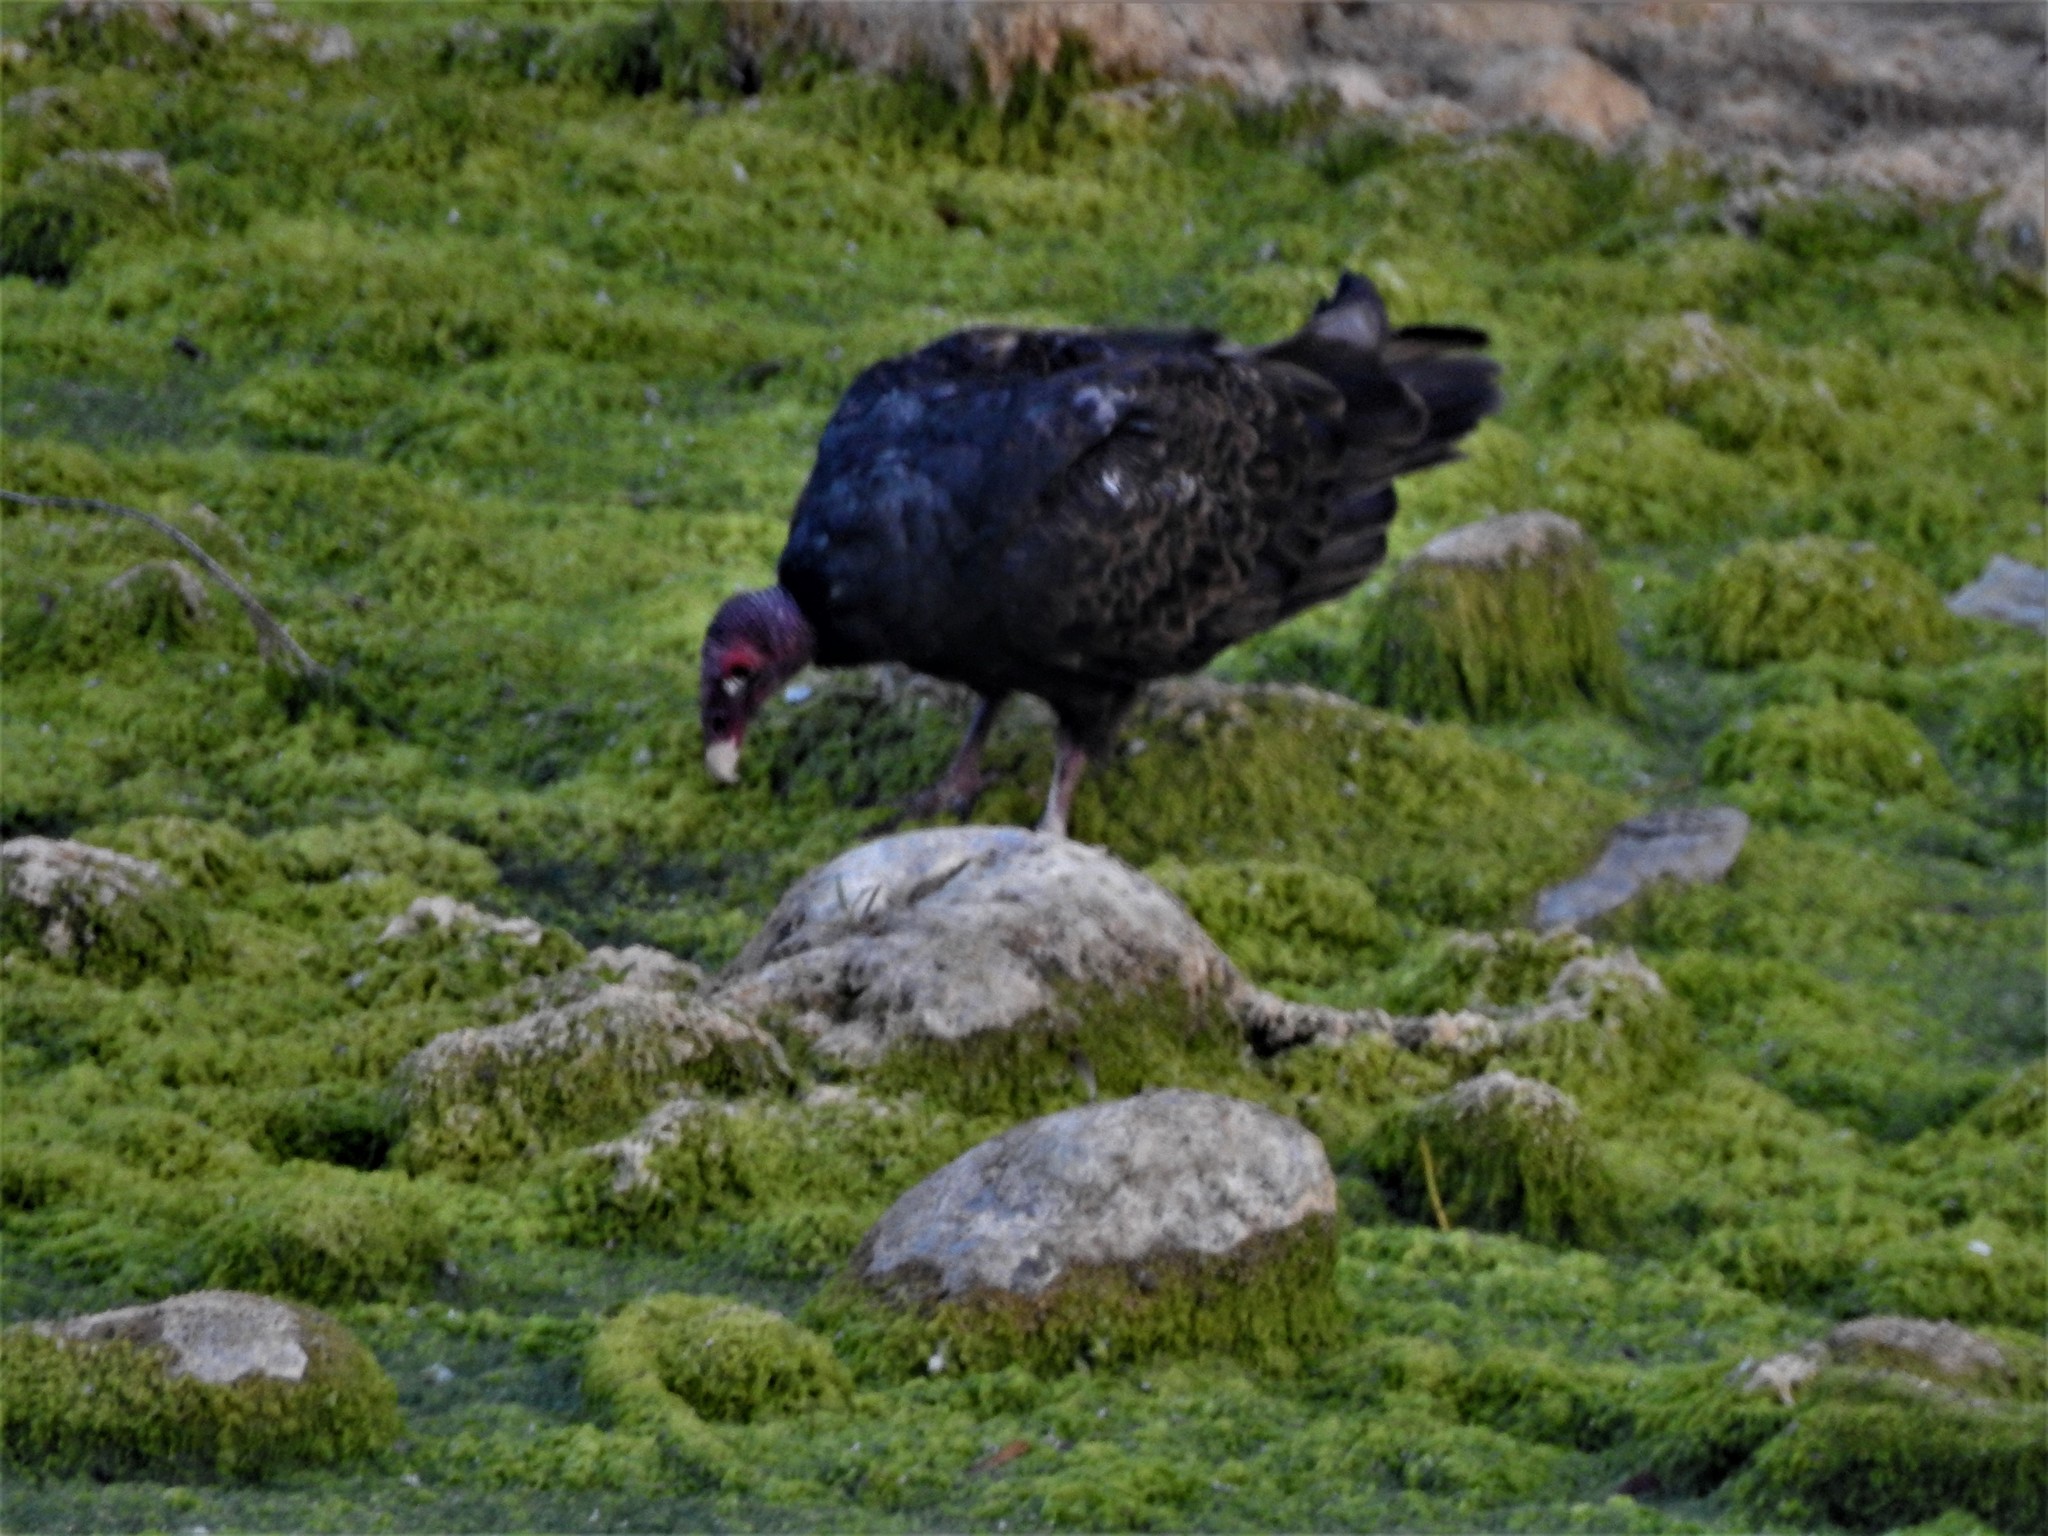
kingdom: Animalia
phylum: Chordata
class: Aves
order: Accipitriformes
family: Cathartidae
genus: Cathartes
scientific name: Cathartes aura
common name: Turkey vulture
